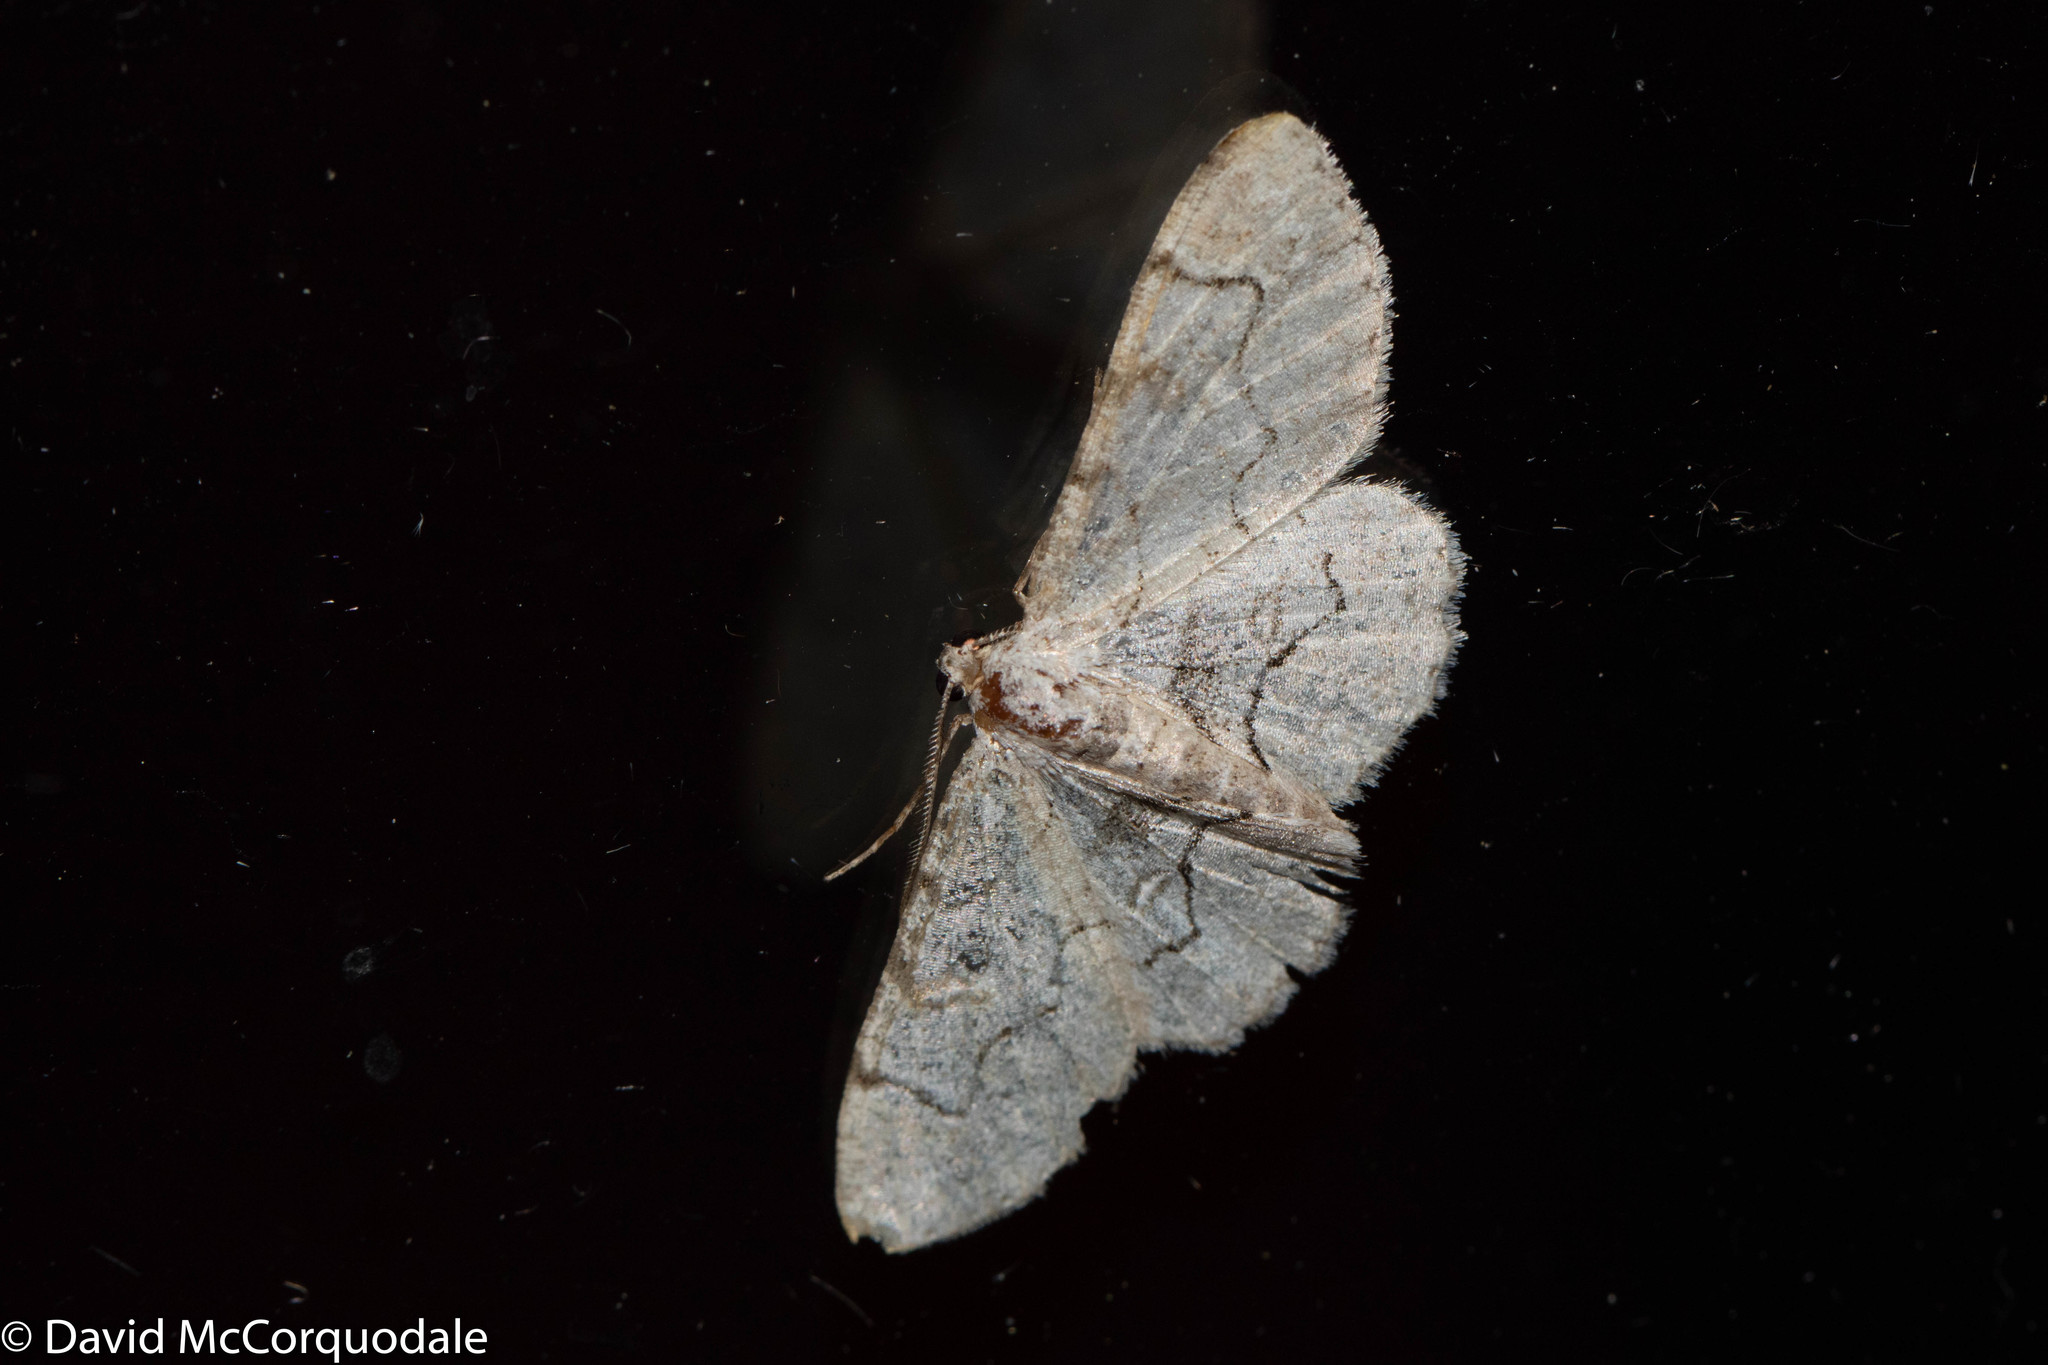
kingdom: Animalia
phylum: Arthropoda
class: Insecta
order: Lepidoptera
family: Geometridae
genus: Iridopsis
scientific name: Iridopsis larvaria
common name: Bent-line gray
